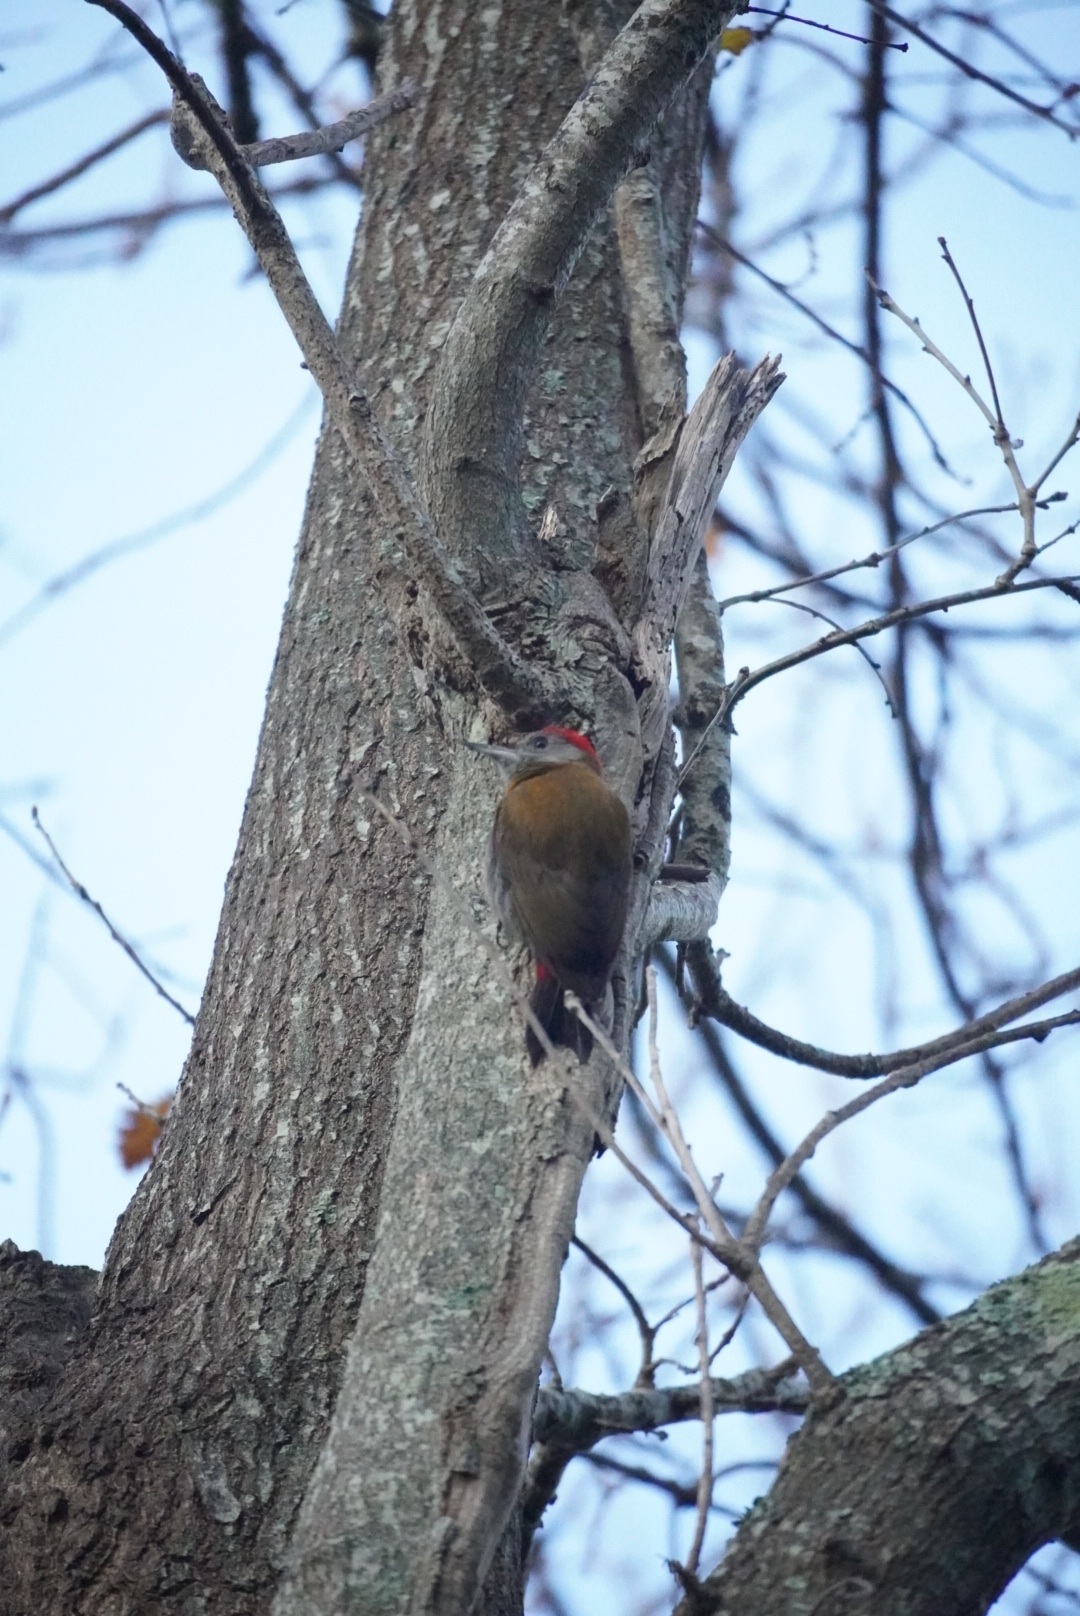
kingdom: Animalia
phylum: Chordata
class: Aves
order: Piciformes
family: Picidae
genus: Dendropicos
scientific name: Dendropicos griseocephalus
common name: Olive woodpecker
